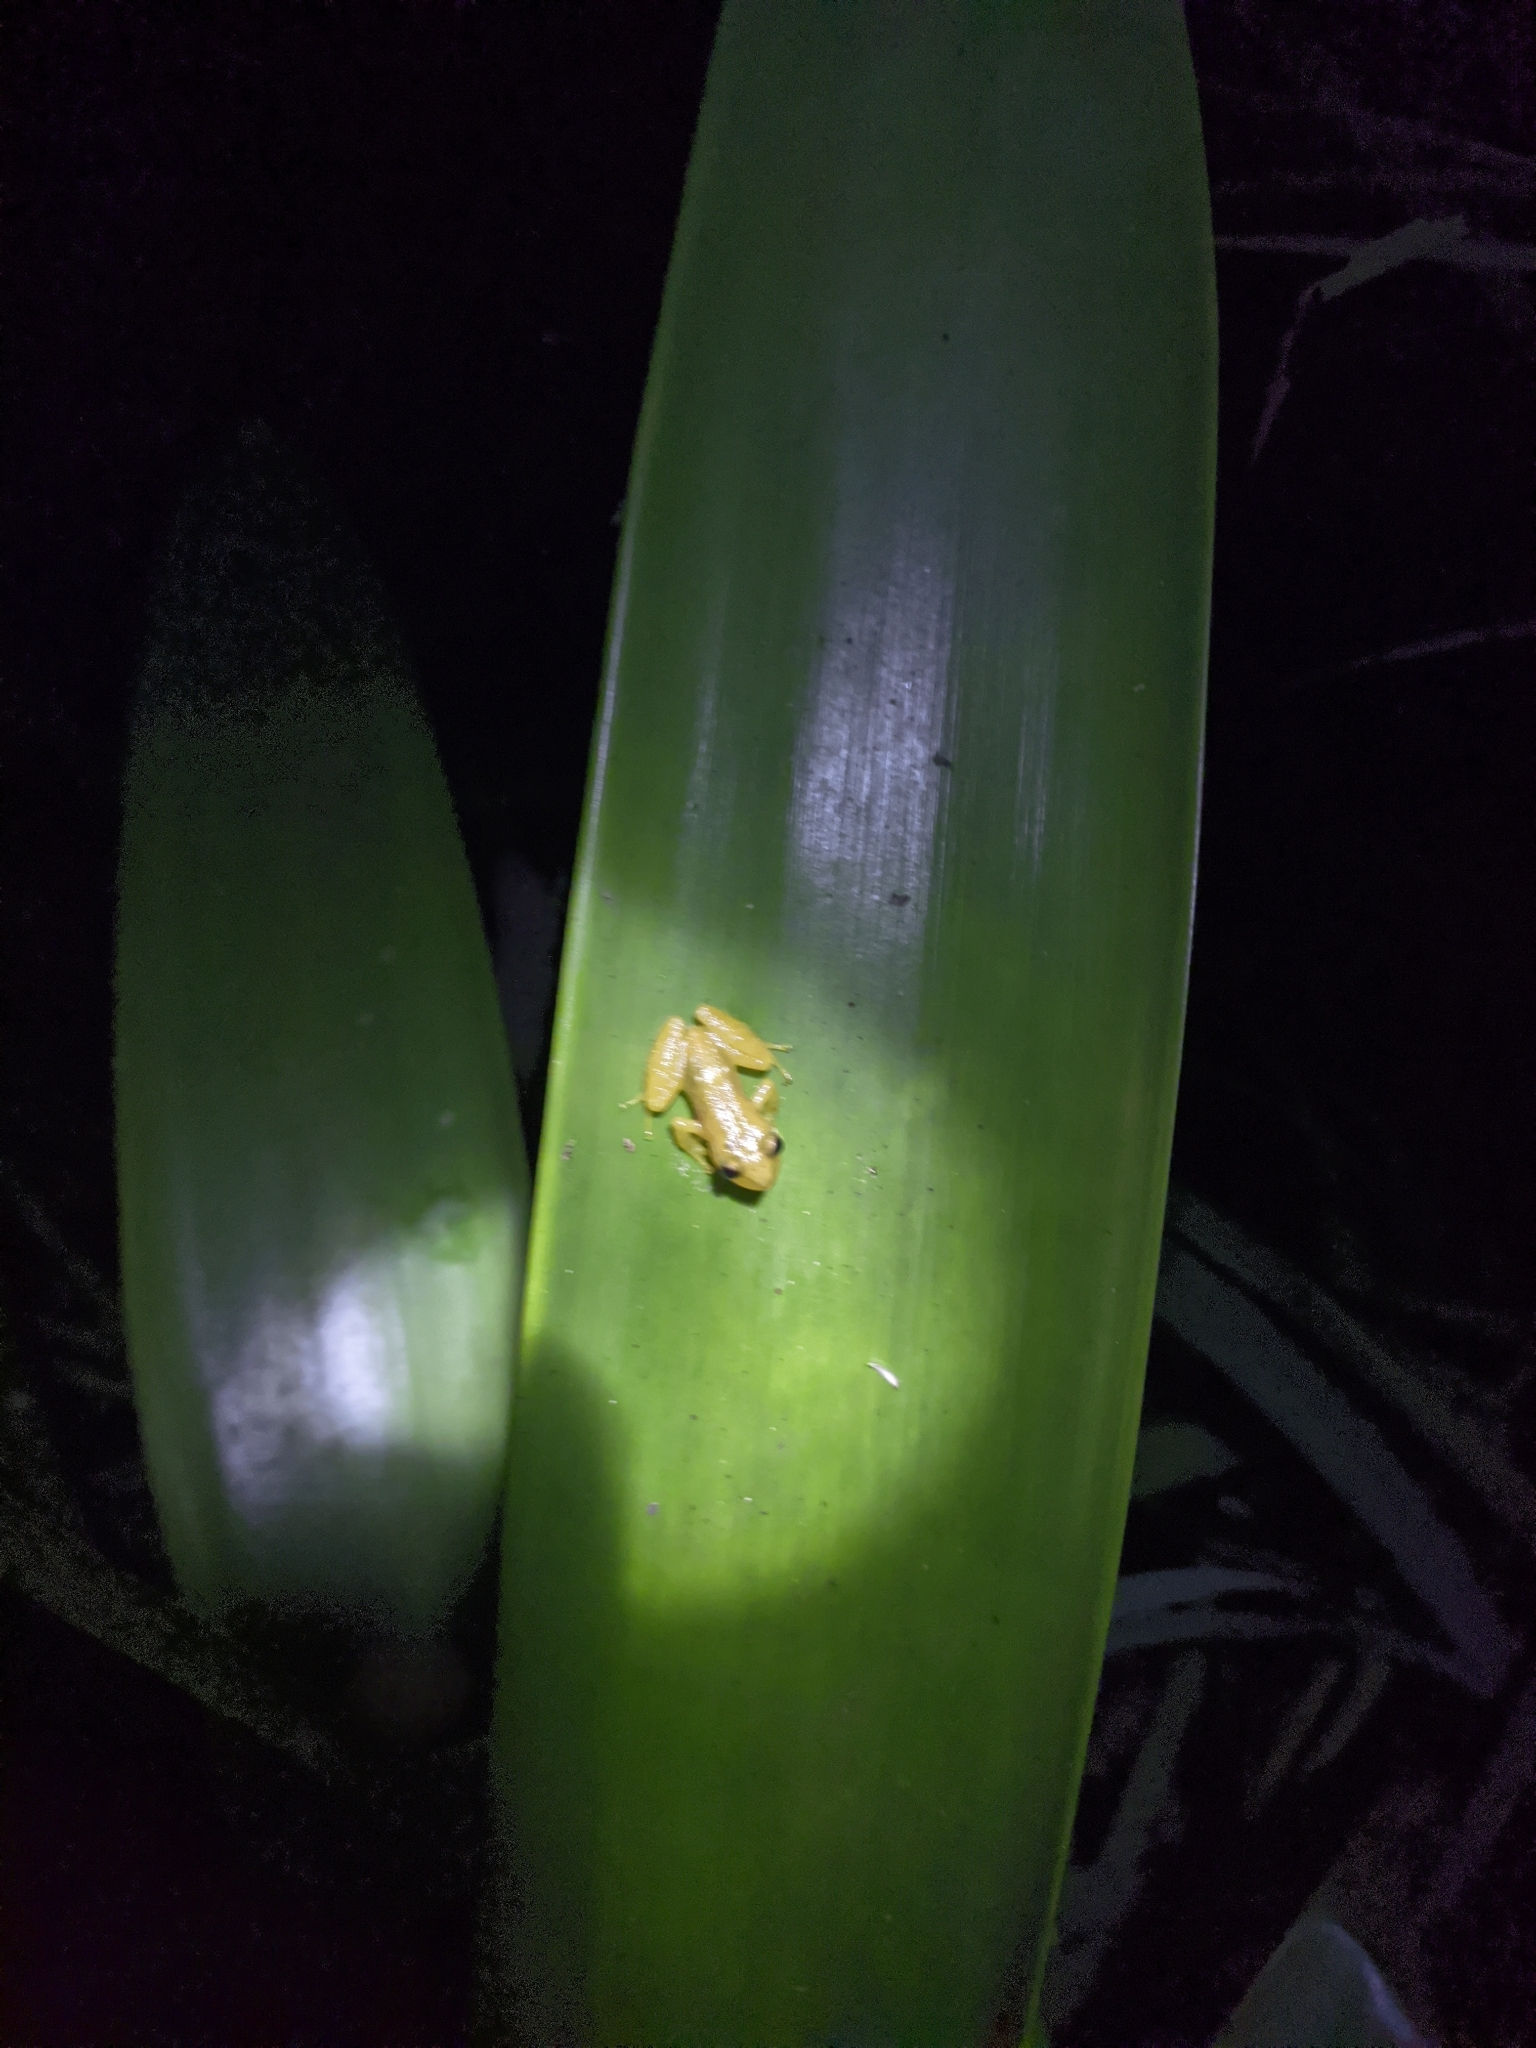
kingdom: Animalia
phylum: Chordata
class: Amphibia
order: Anura
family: Craugastoridae
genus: Tachiramantis
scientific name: Tachiramantis
